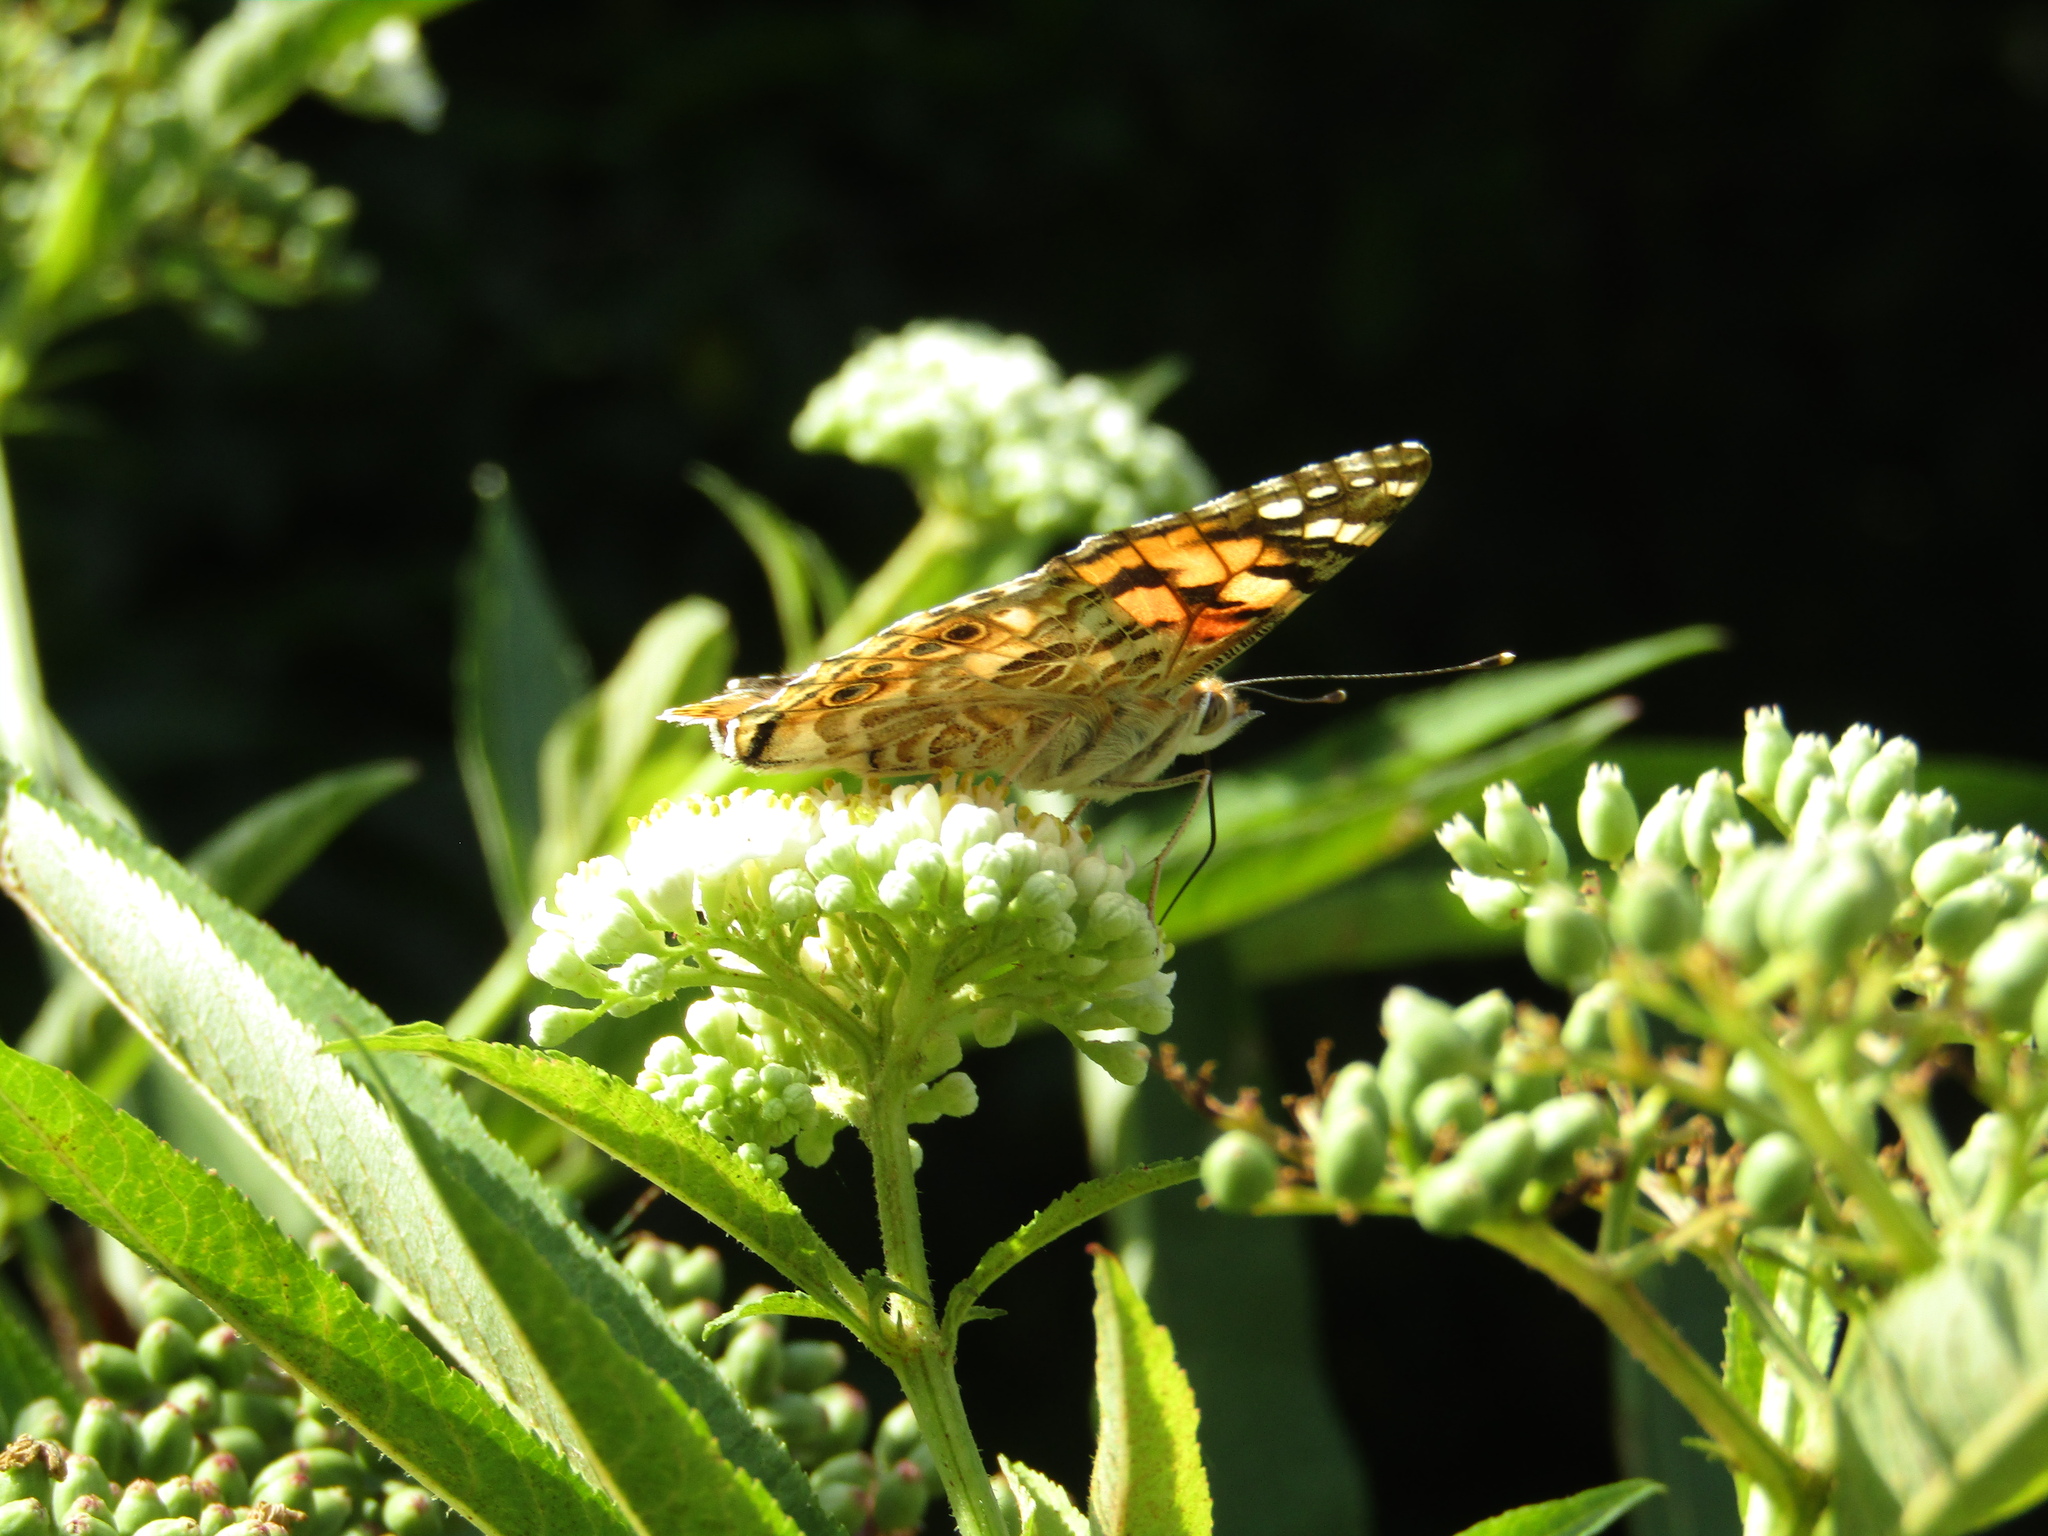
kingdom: Animalia
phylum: Arthropoda
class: Insecta
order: Lepidoptera
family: Nymphalidae
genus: Vanessa
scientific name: Vanessa cardui
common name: Painted lady
